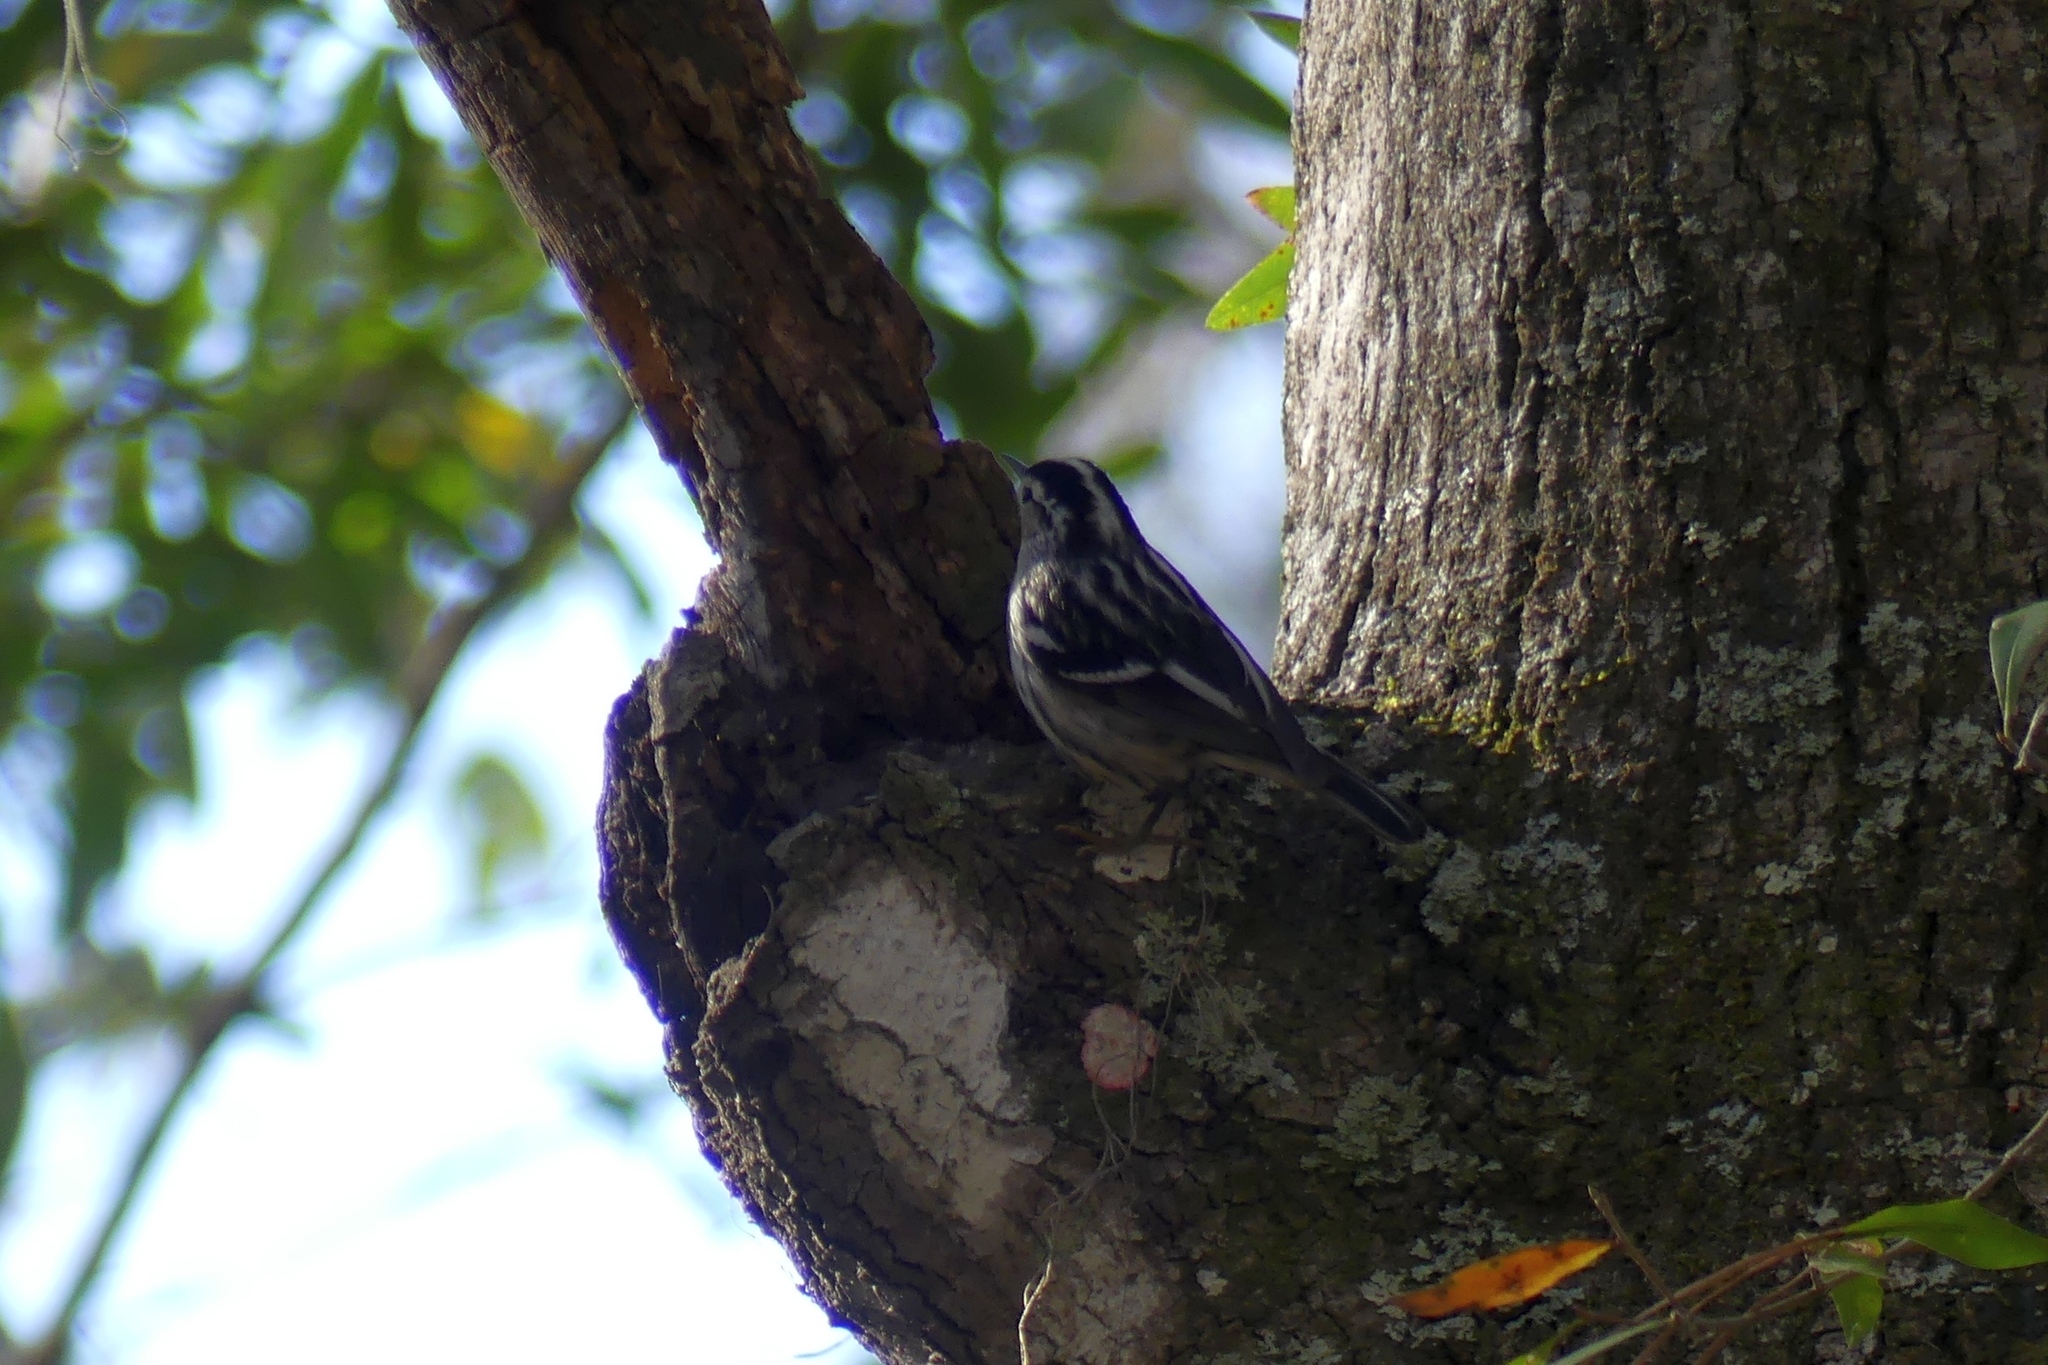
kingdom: Animalia
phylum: Chordata
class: Aves
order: Passeriformes
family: Parulidae
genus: Mniotilta
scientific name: Mniotilta varia
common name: Black-and-white warbler
